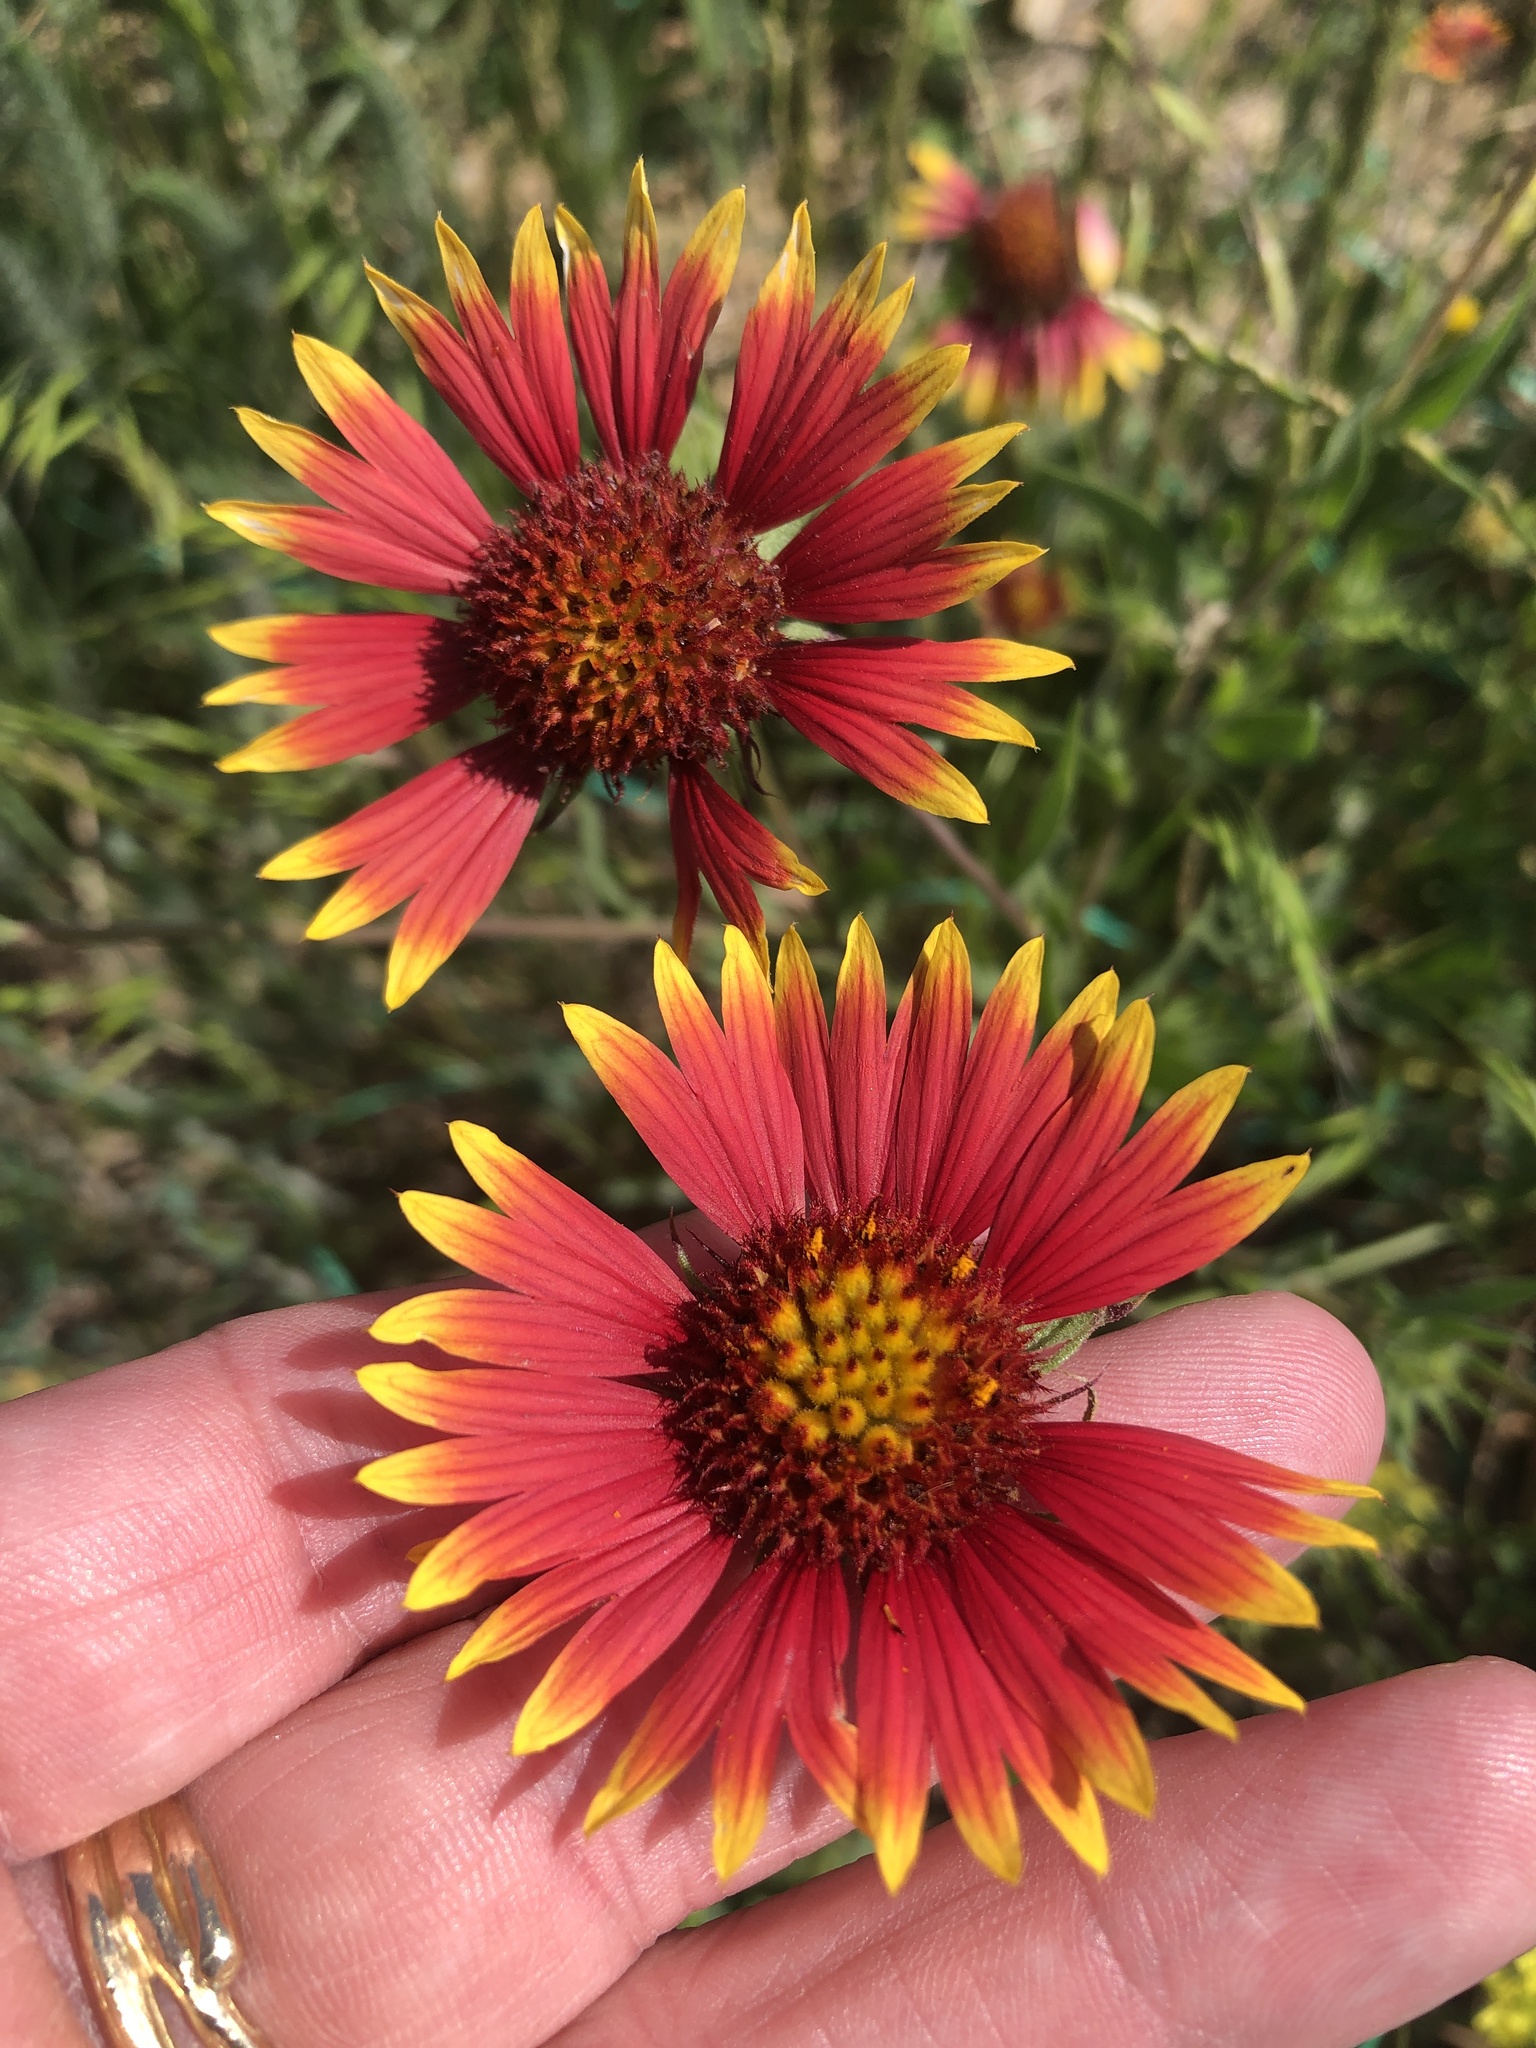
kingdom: Plantae
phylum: Tracheophyta
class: Magnoliopsida
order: Asterales
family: Asteraceae
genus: Gaillardia
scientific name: Gaillardia pulchella
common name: Firewheel
